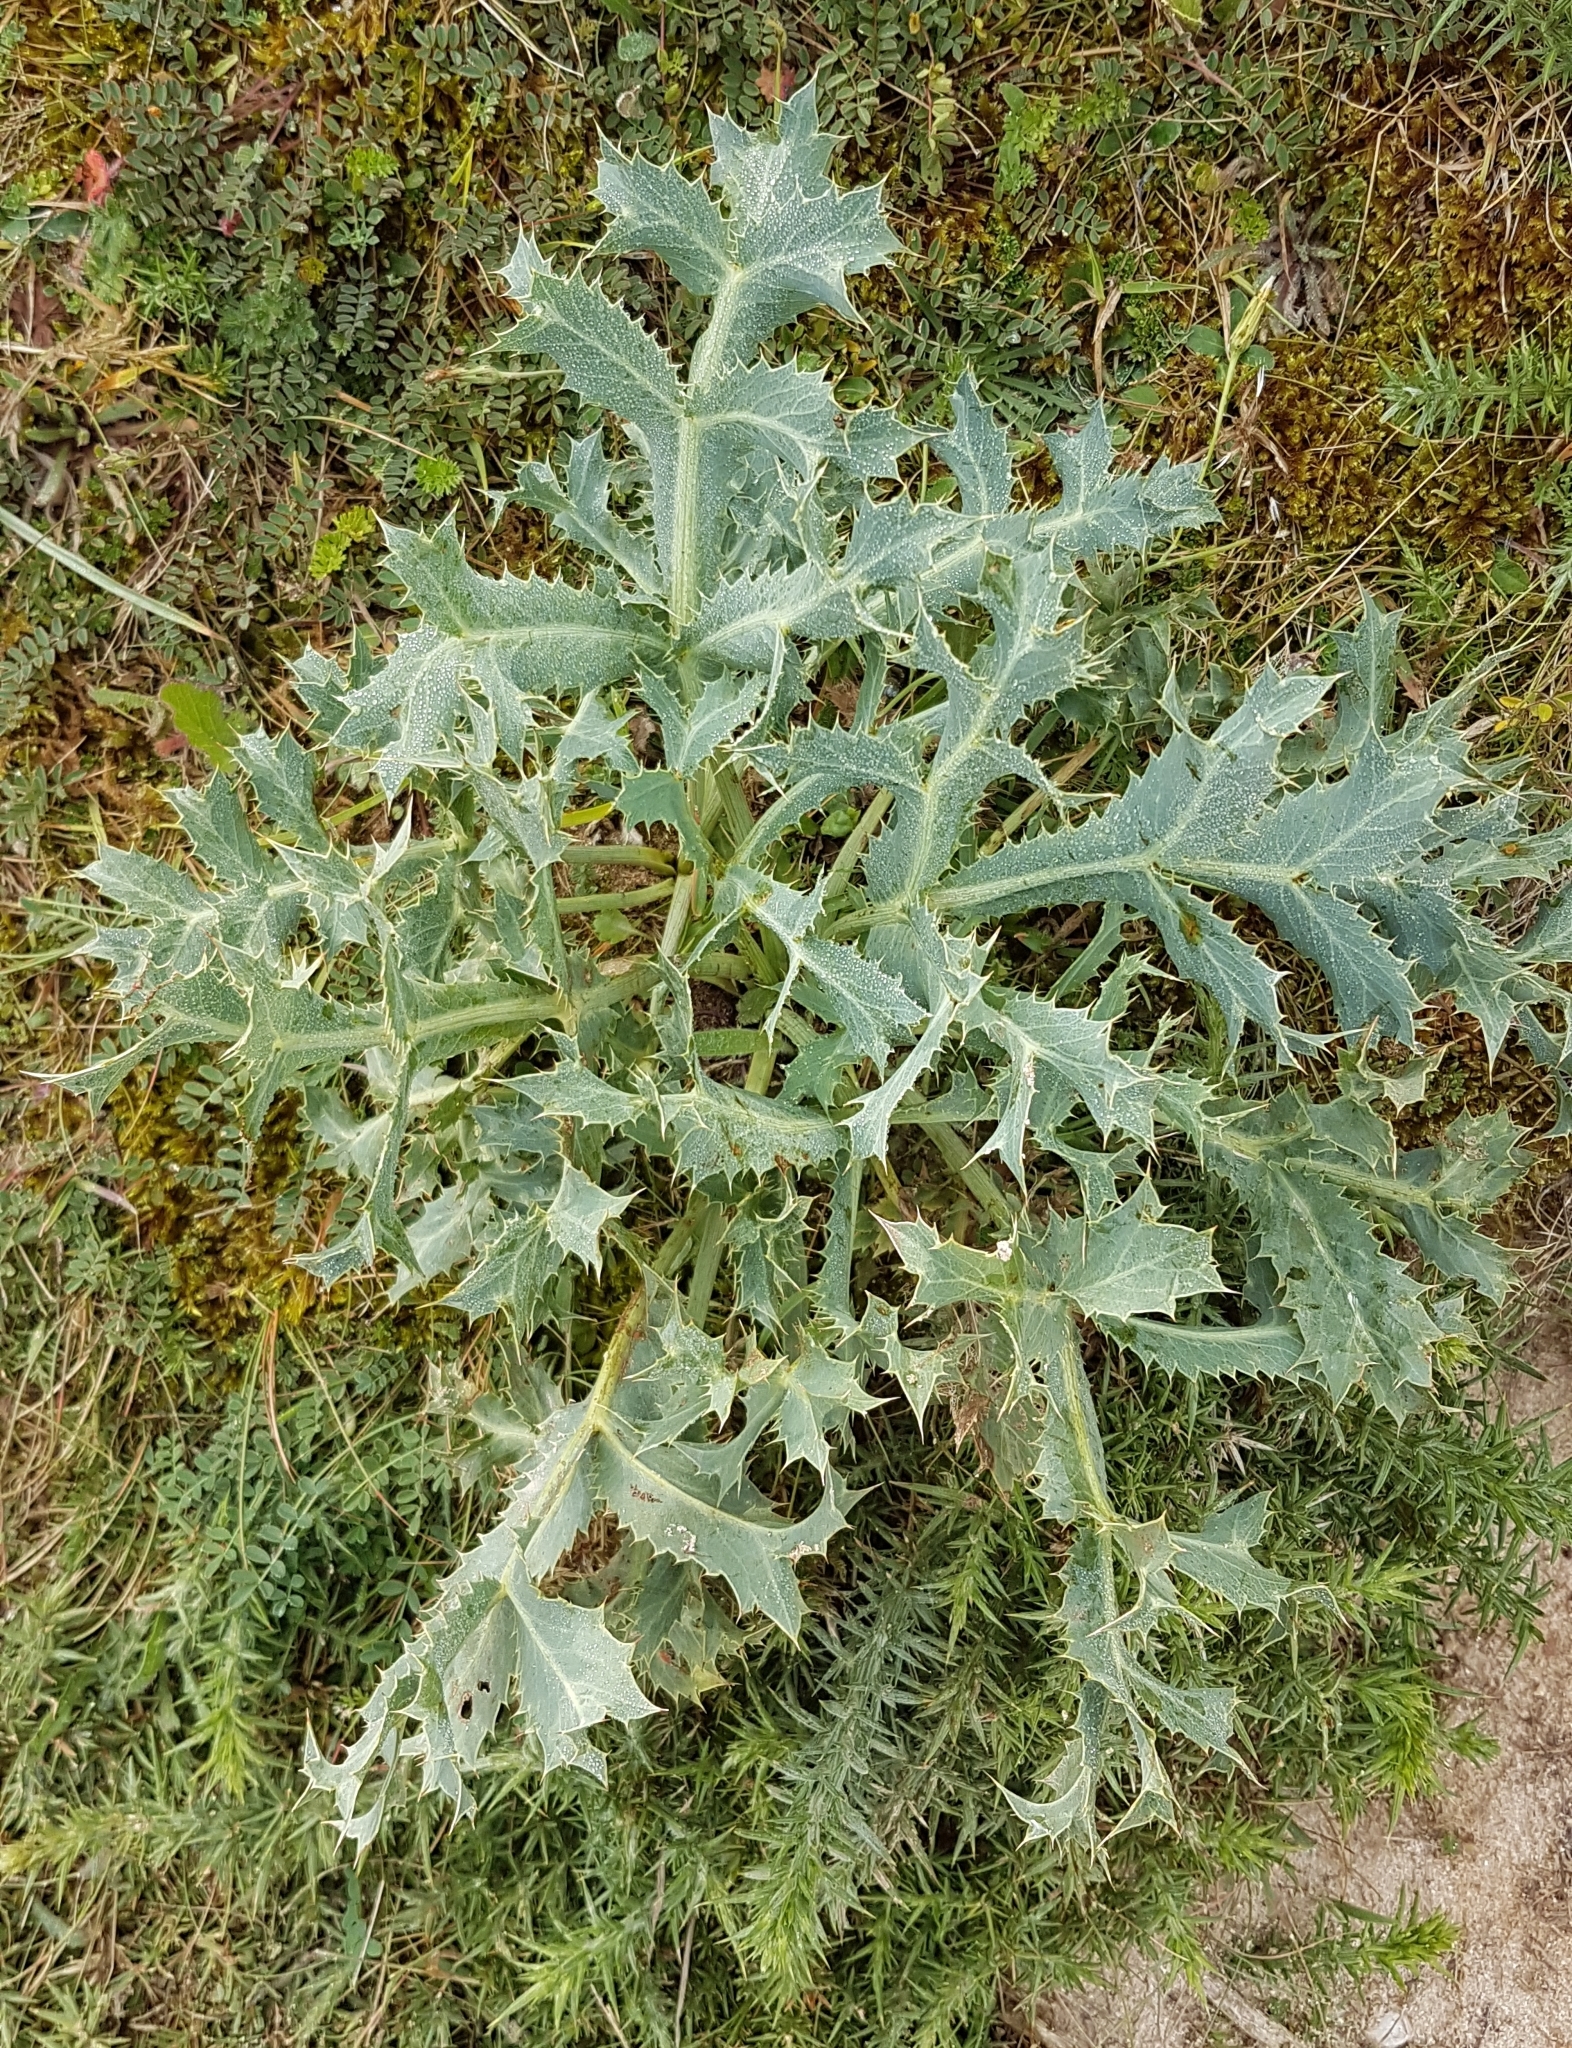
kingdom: Plantae
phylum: Tracheophyta
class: Magnoliopsida
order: Apiales
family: Apiaceae
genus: Eryngium
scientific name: Eryngium campestre
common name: Field eryngo
